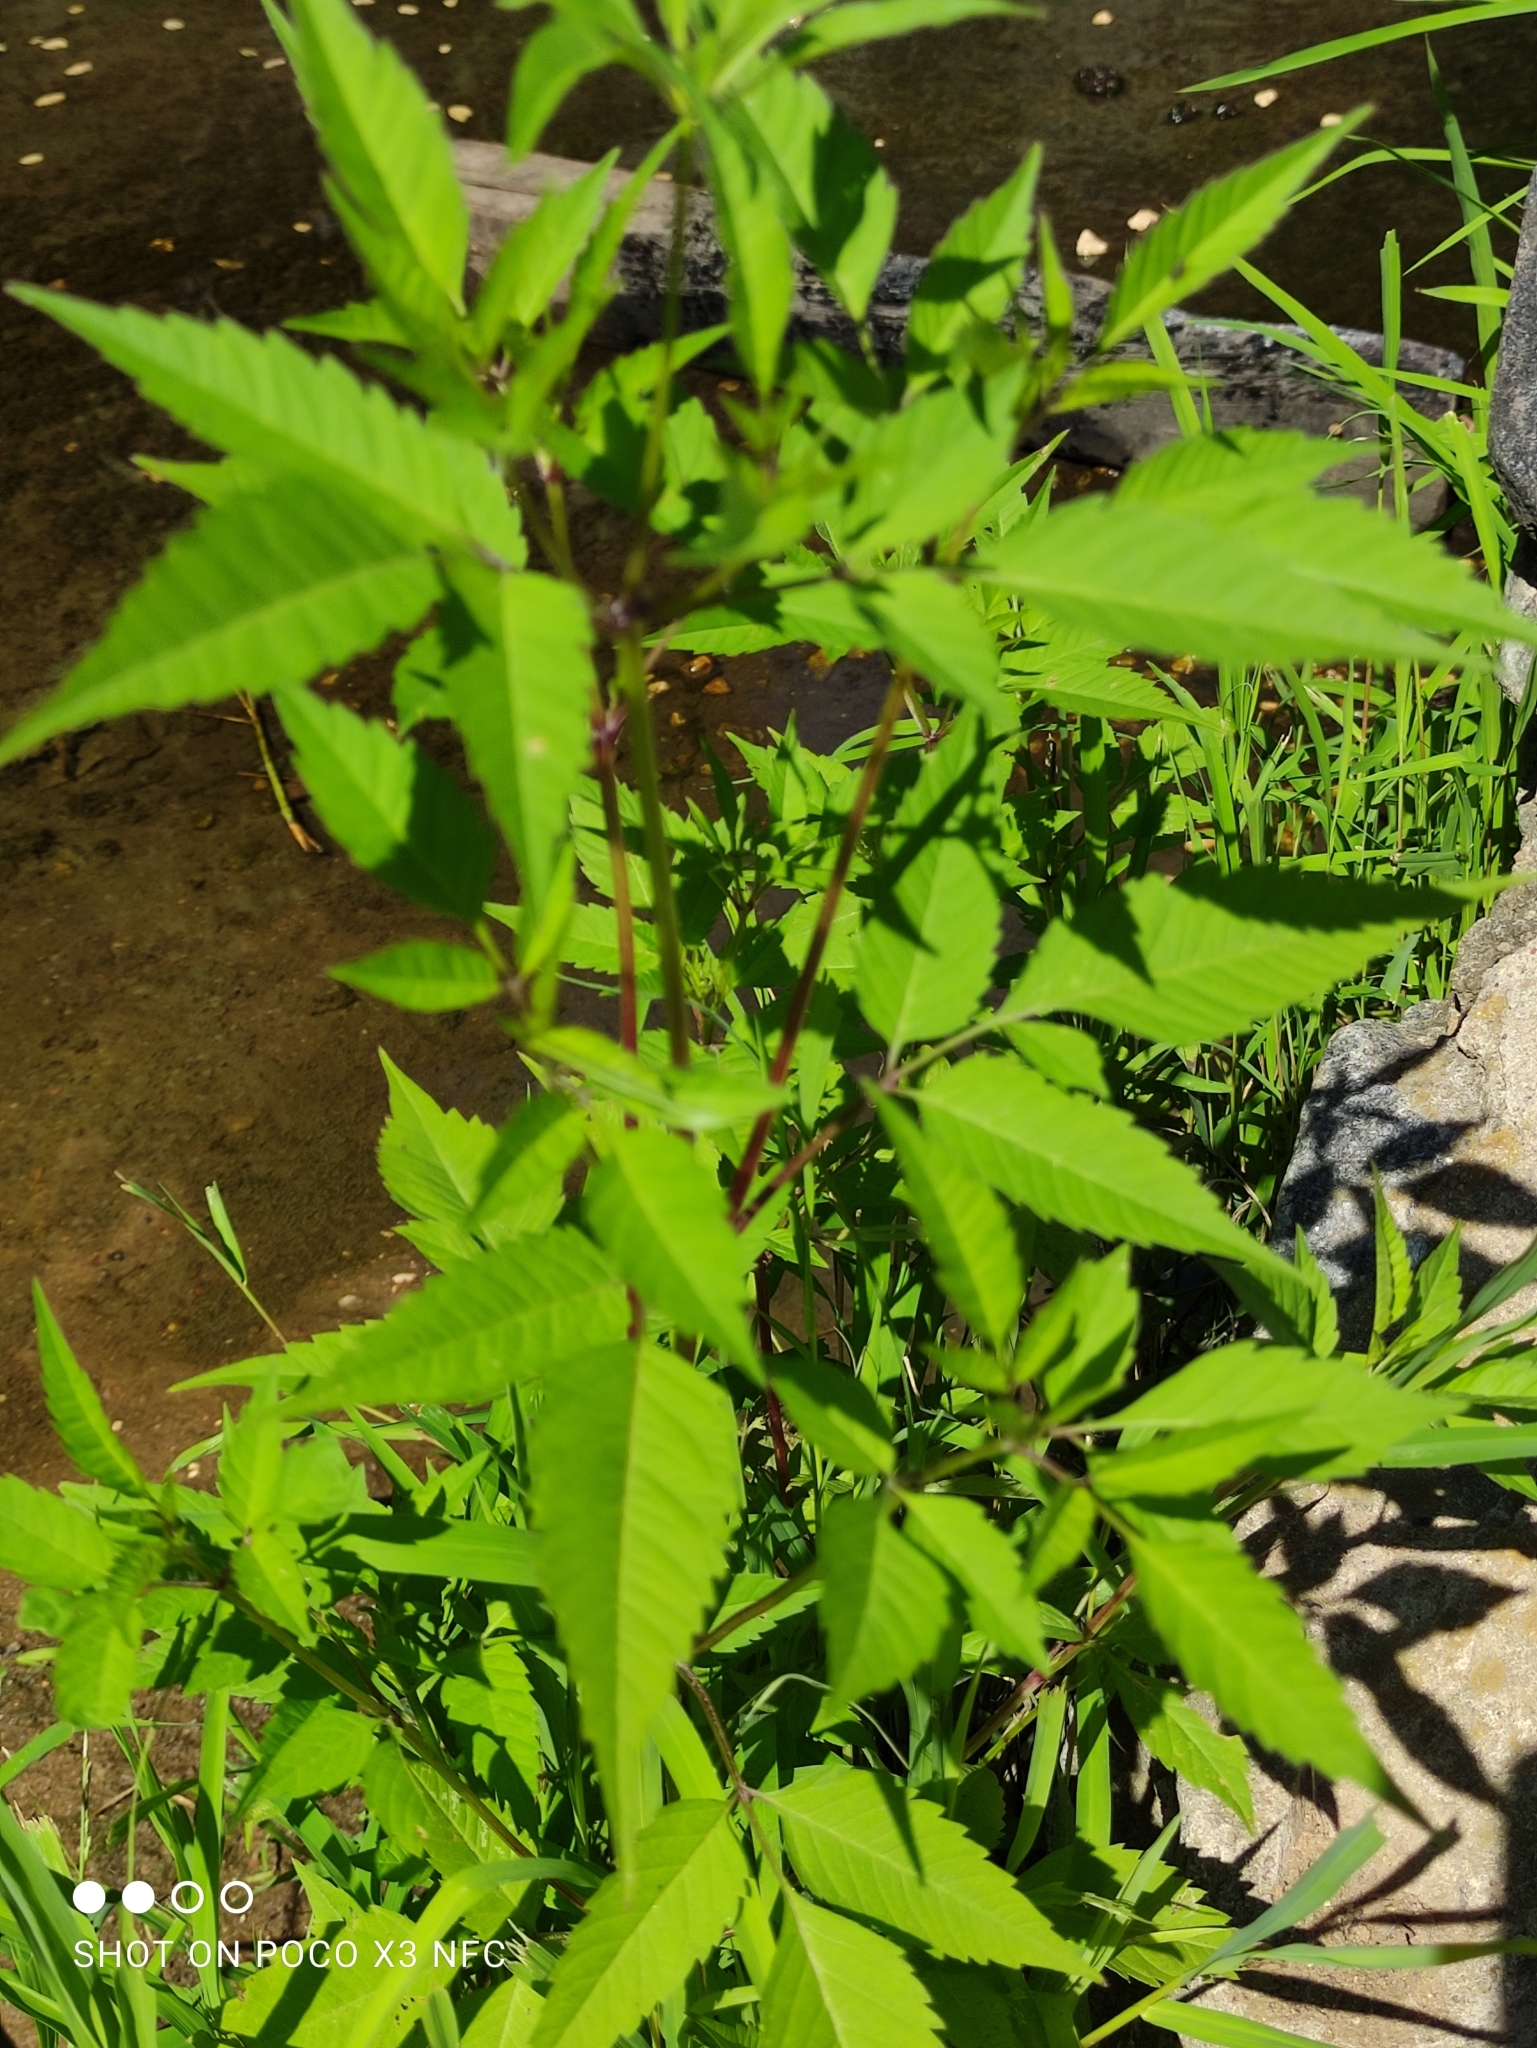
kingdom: Plantae
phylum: Tracheophyta
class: Magnoliopsida
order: Asterales
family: Asteraceae
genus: Bidens
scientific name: Bidens frondosa
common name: Beggarticks
